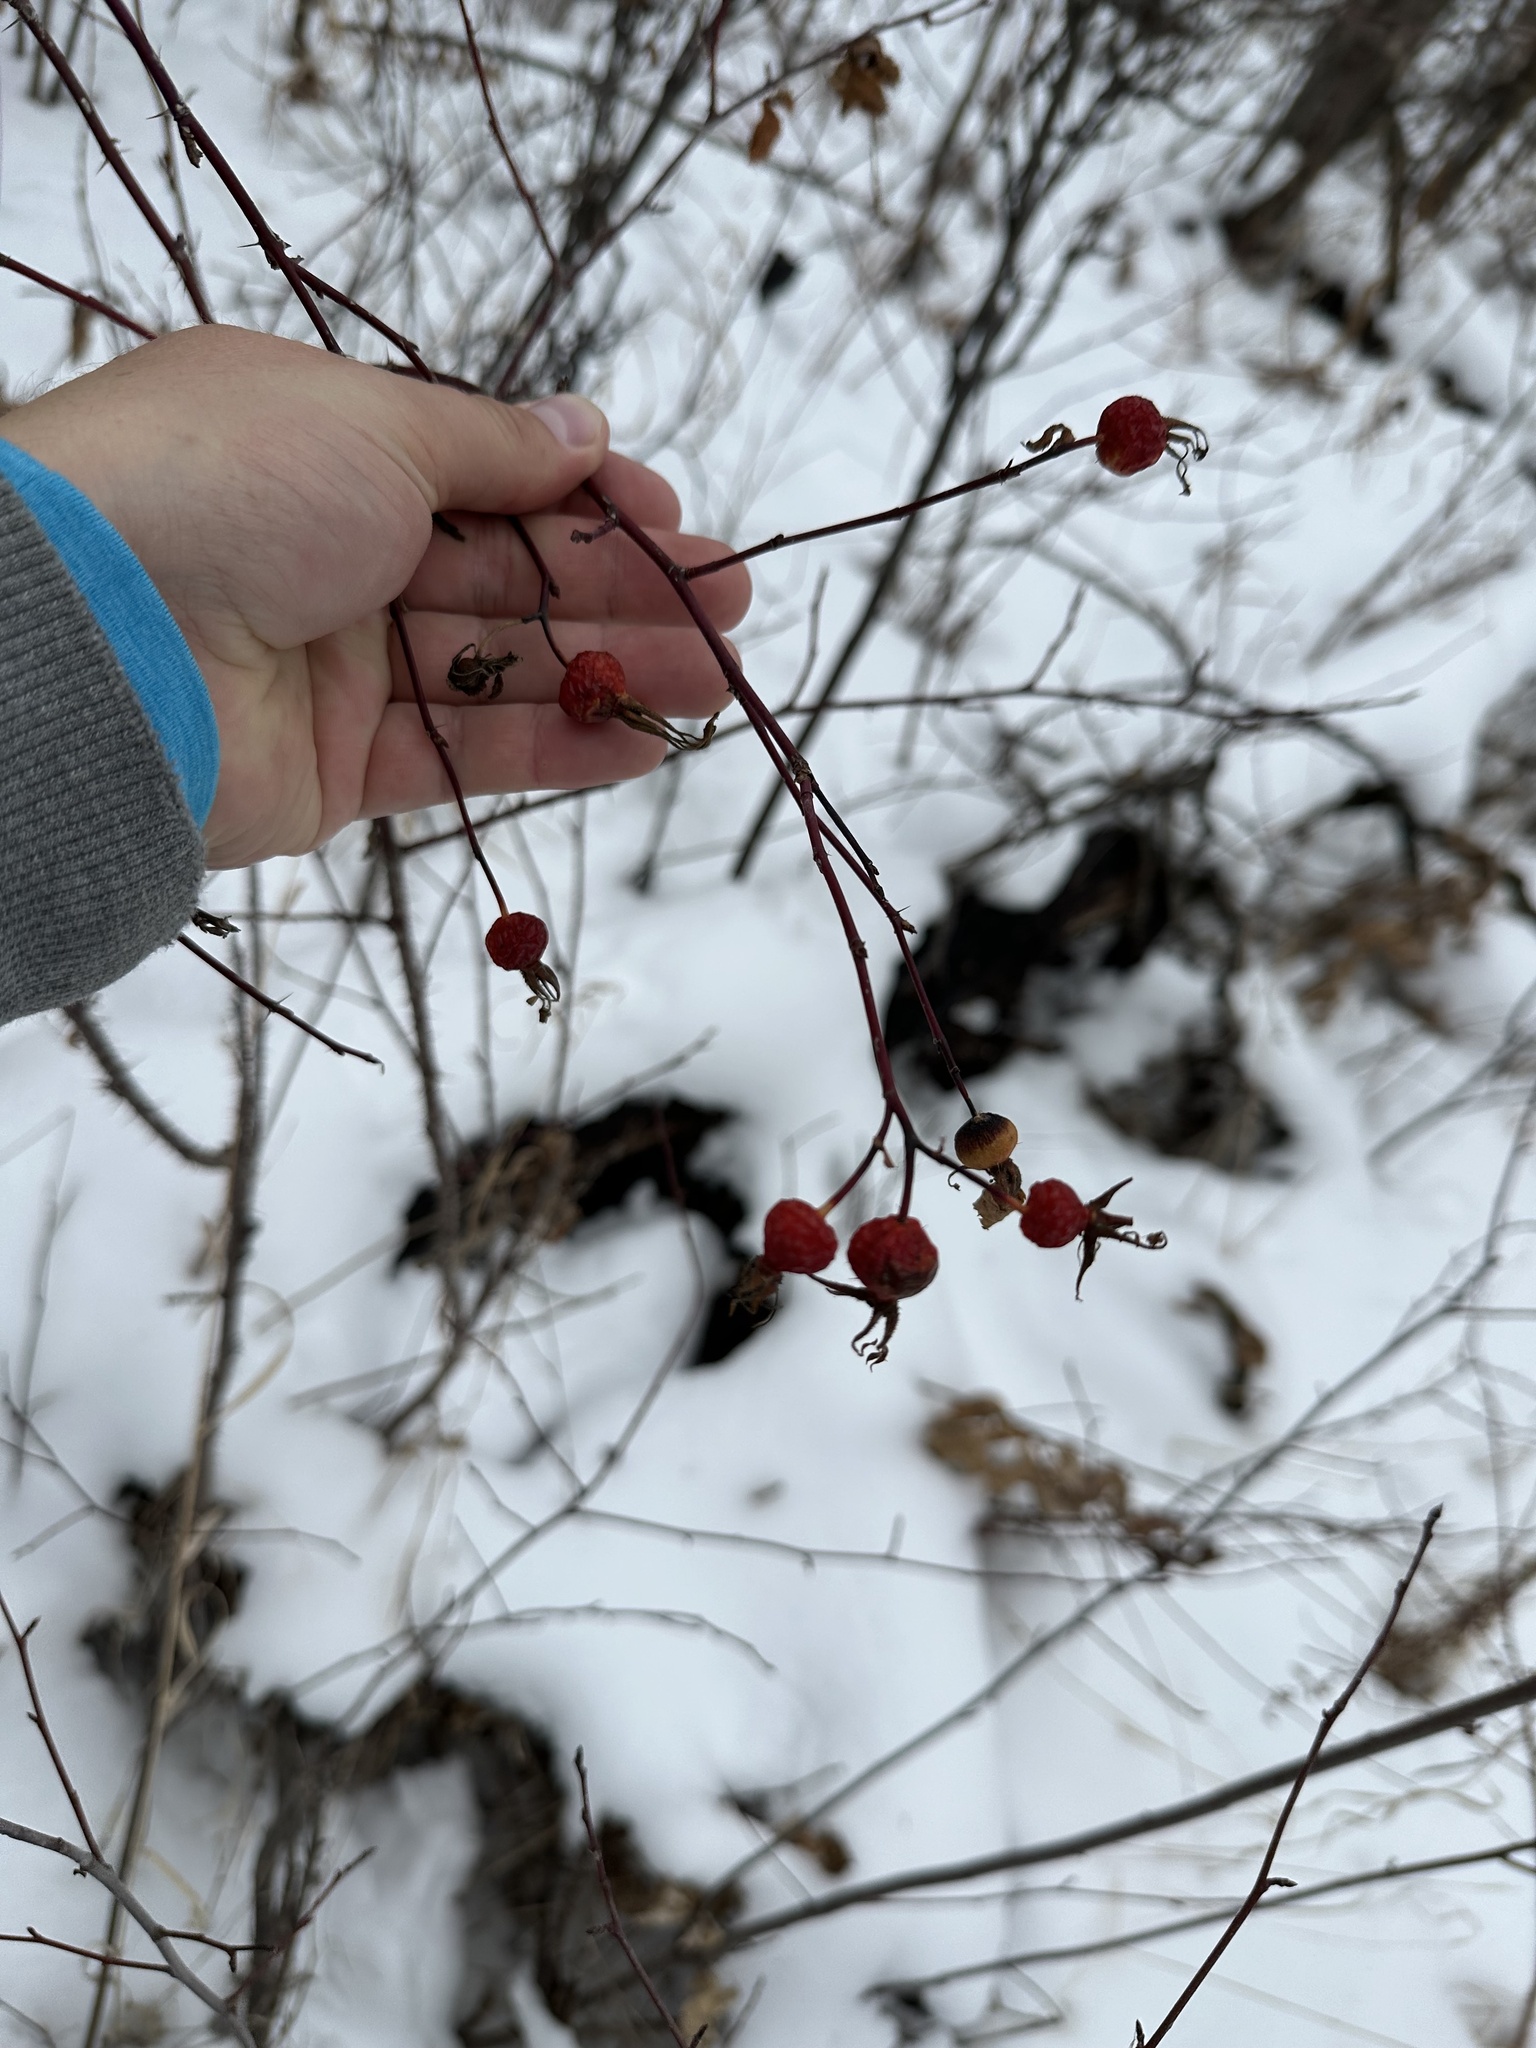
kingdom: Plantae
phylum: Tracheophyta
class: Magnoliopsida
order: Rosales
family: Rosaceae
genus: Rosa
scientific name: Rosa woodsii
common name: Woods's rose
